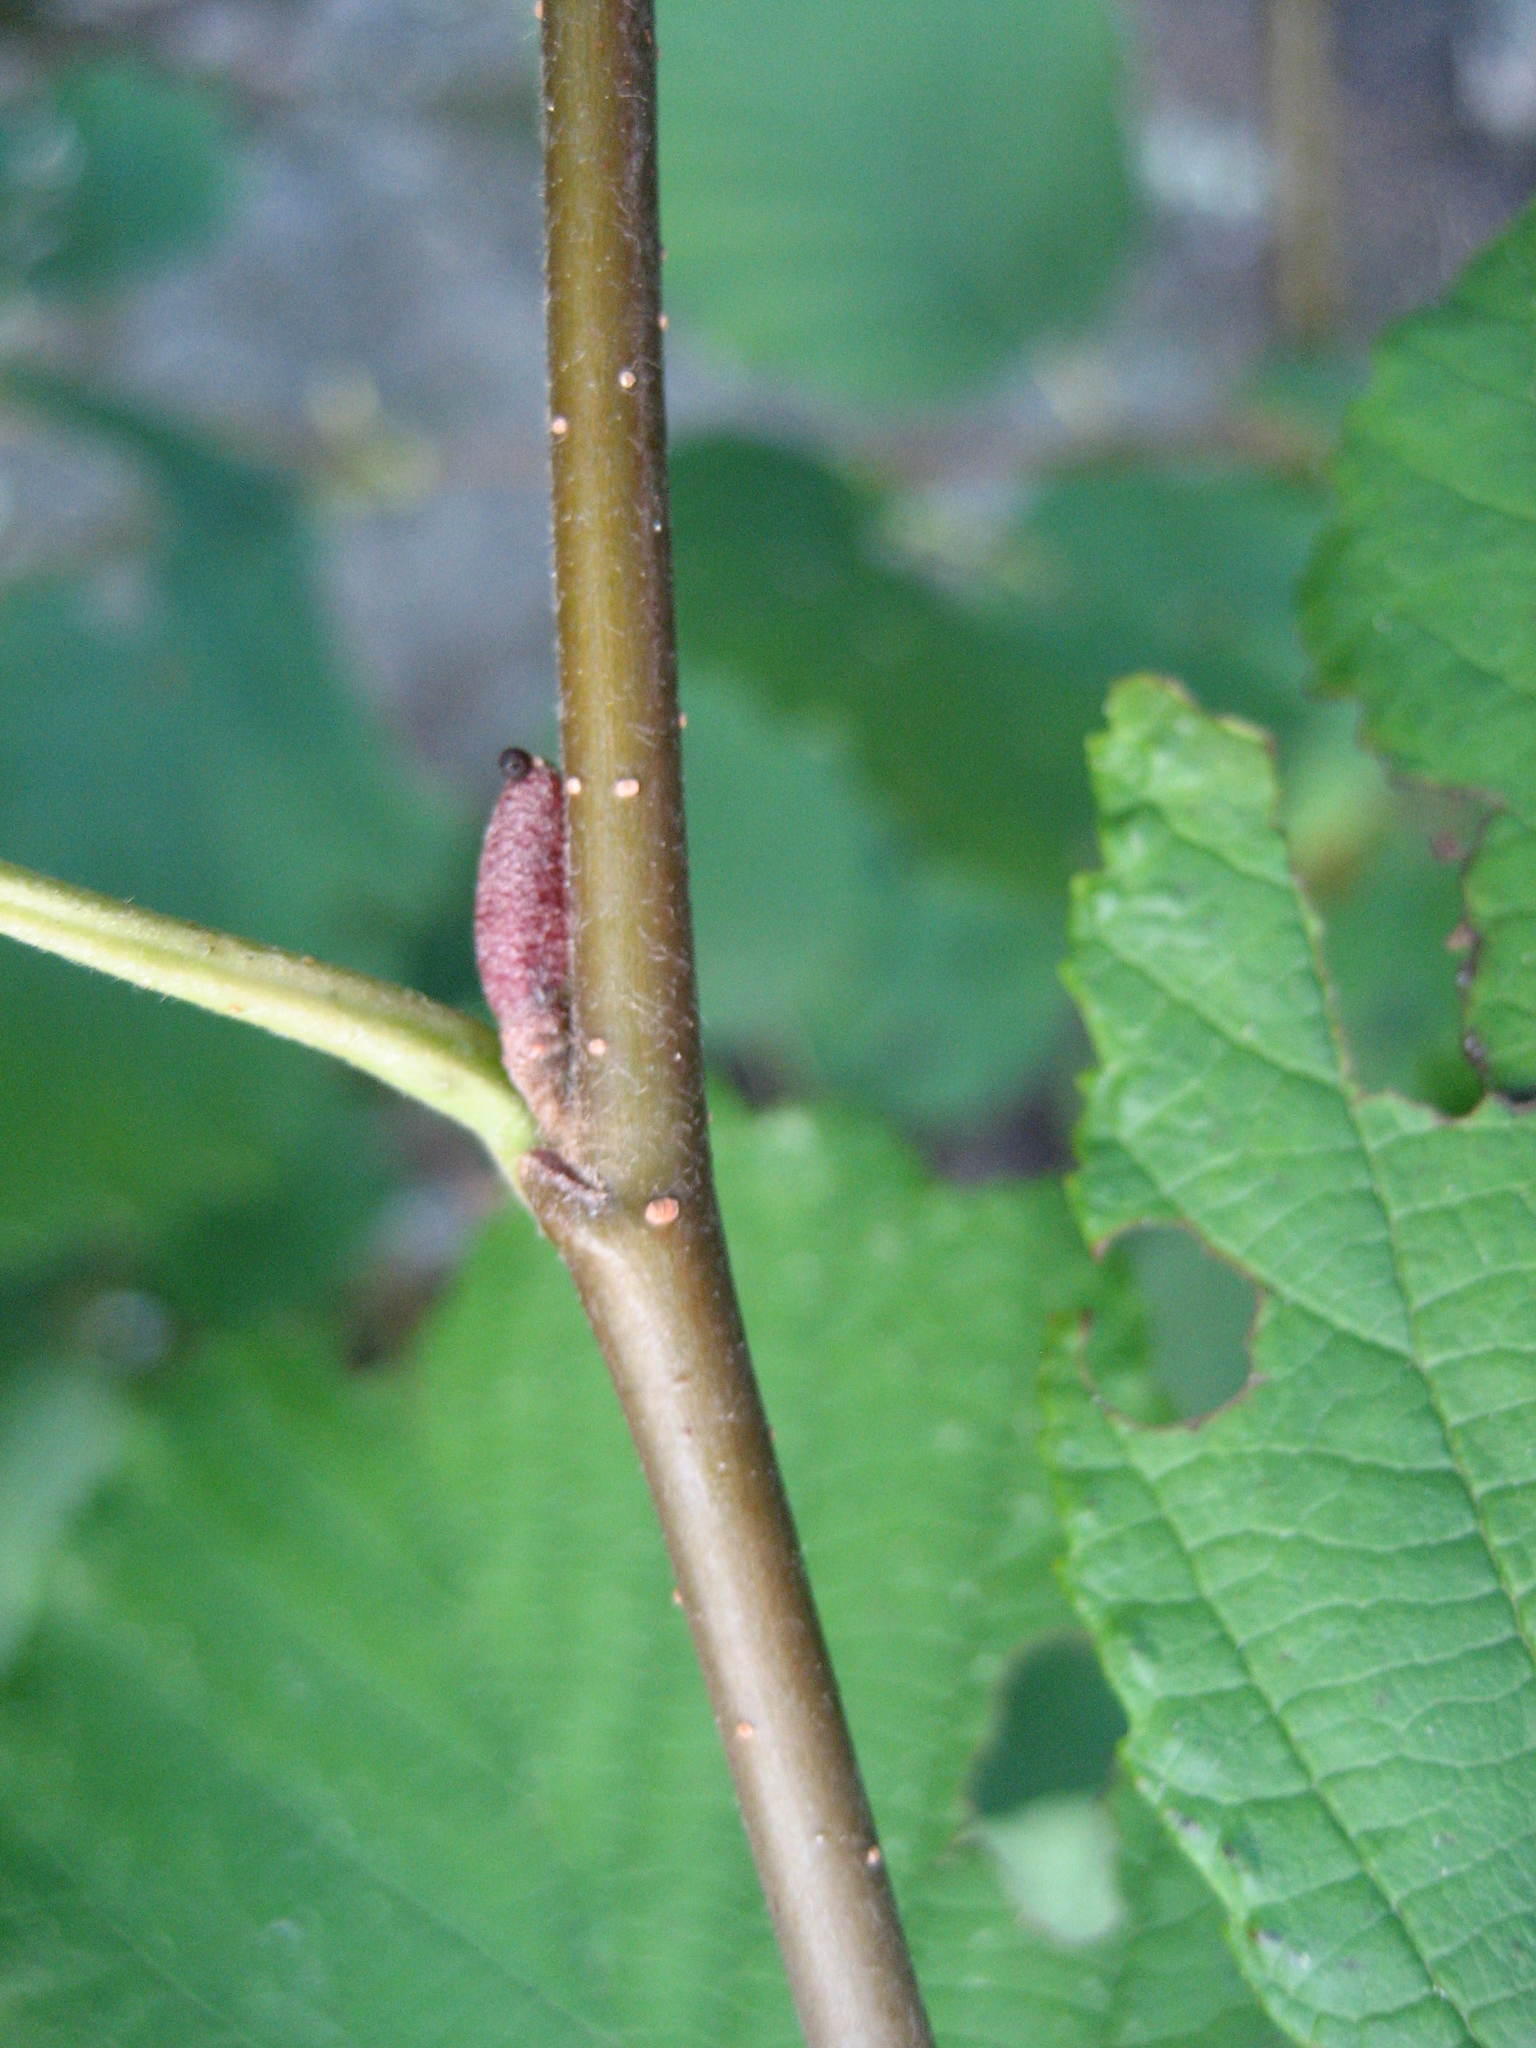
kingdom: Plantae
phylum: Tracheophyta
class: Magnoliopsida
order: Fagales
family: Betulaceae
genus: Alnus
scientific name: Alnus incana
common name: Grey alder
